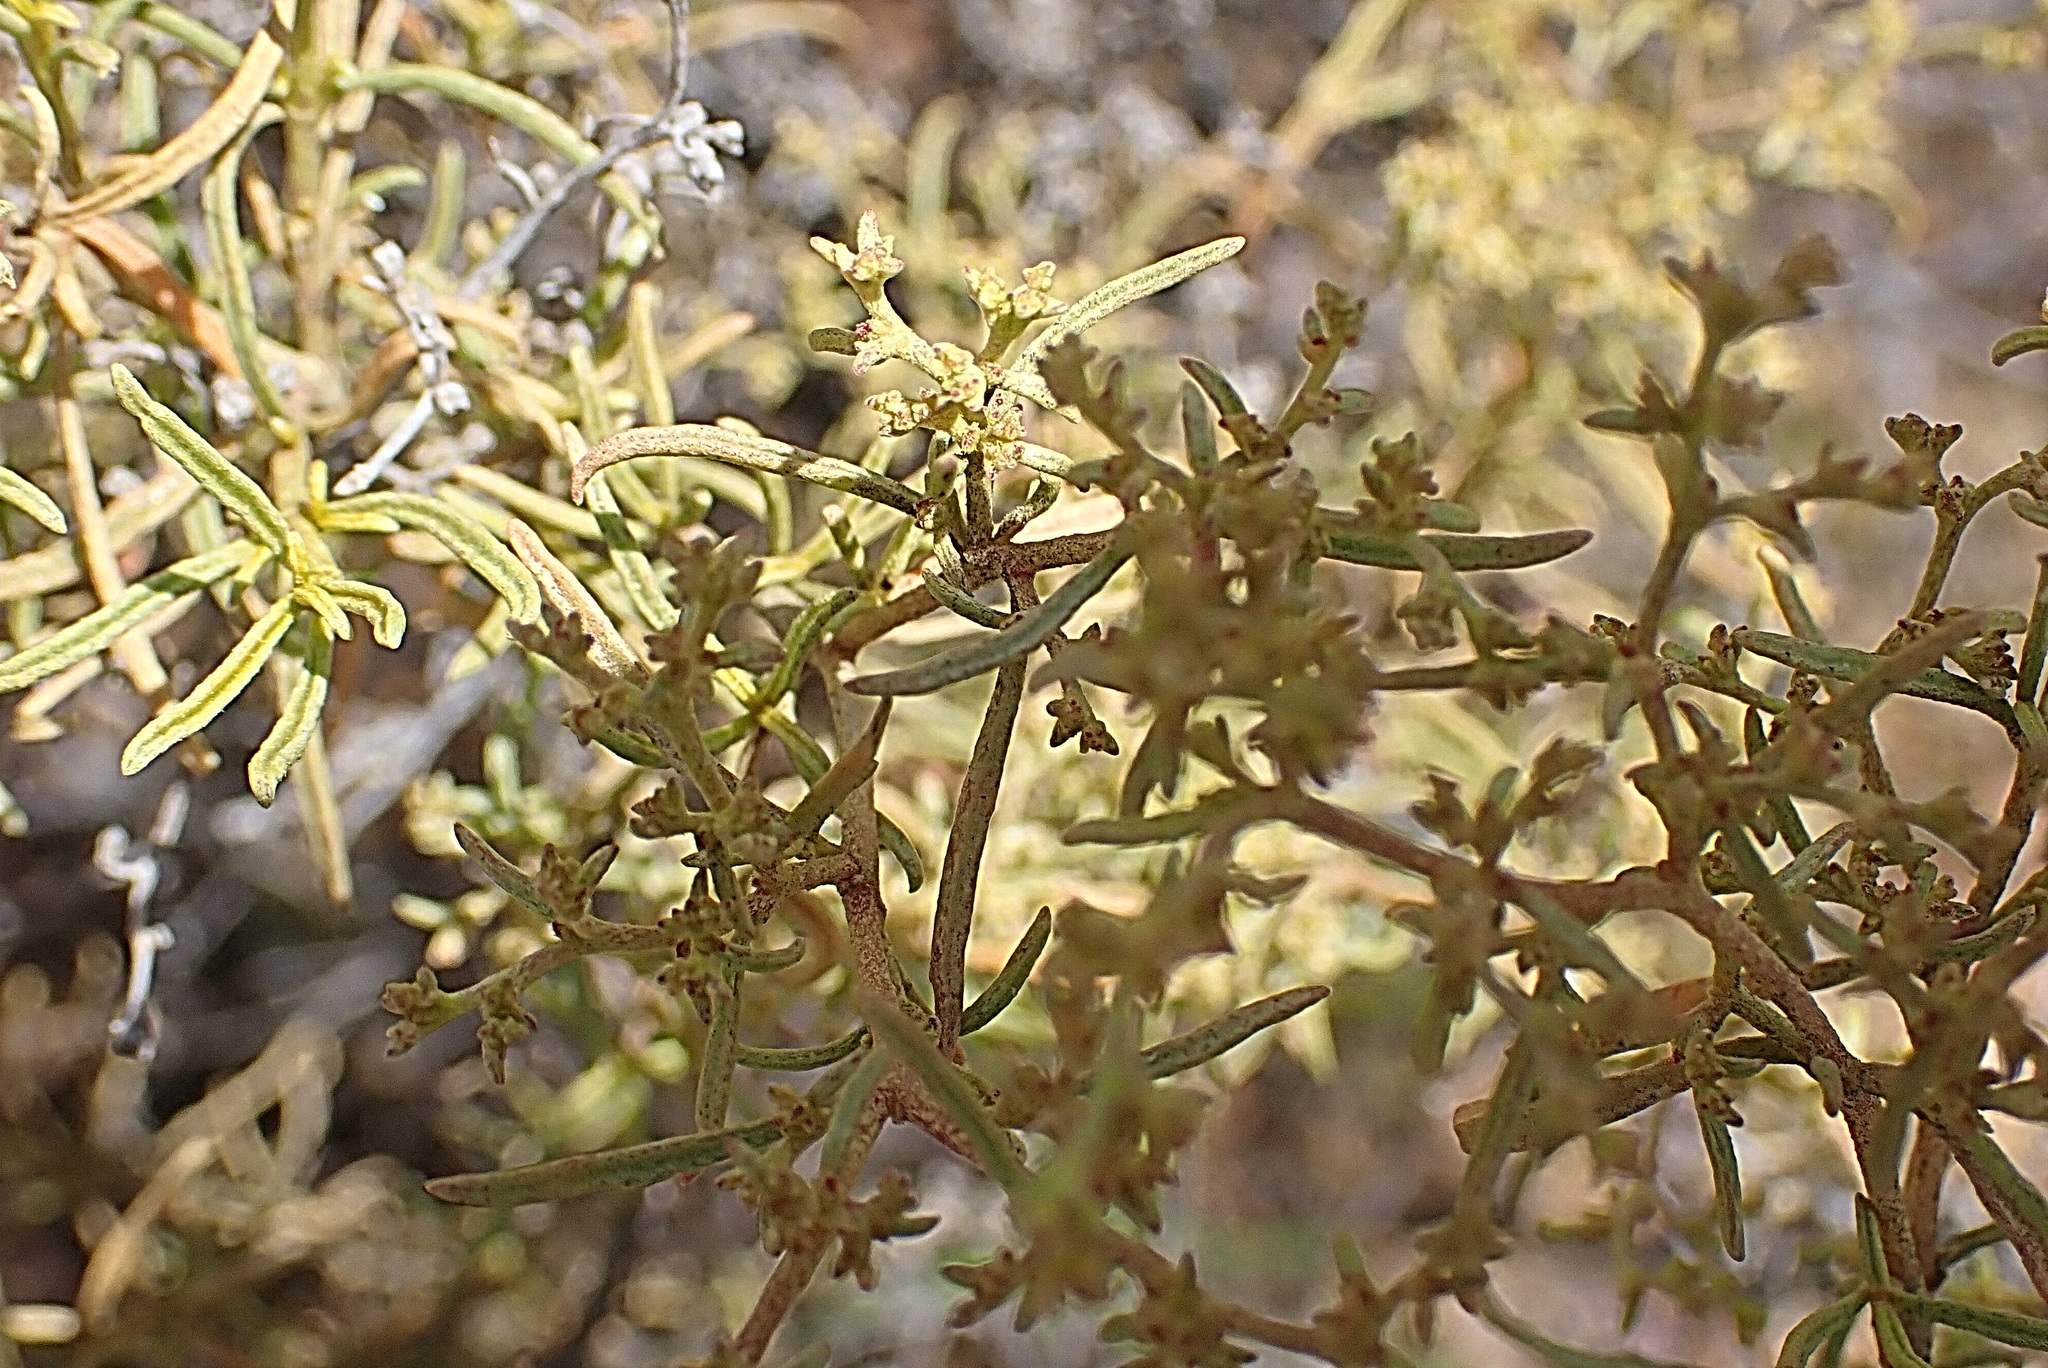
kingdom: Plantae
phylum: Tracheophyta
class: Magnoliopsida
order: Caryophyllales
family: Aizoaceae
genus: Aizoon
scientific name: Aizoon africanum
